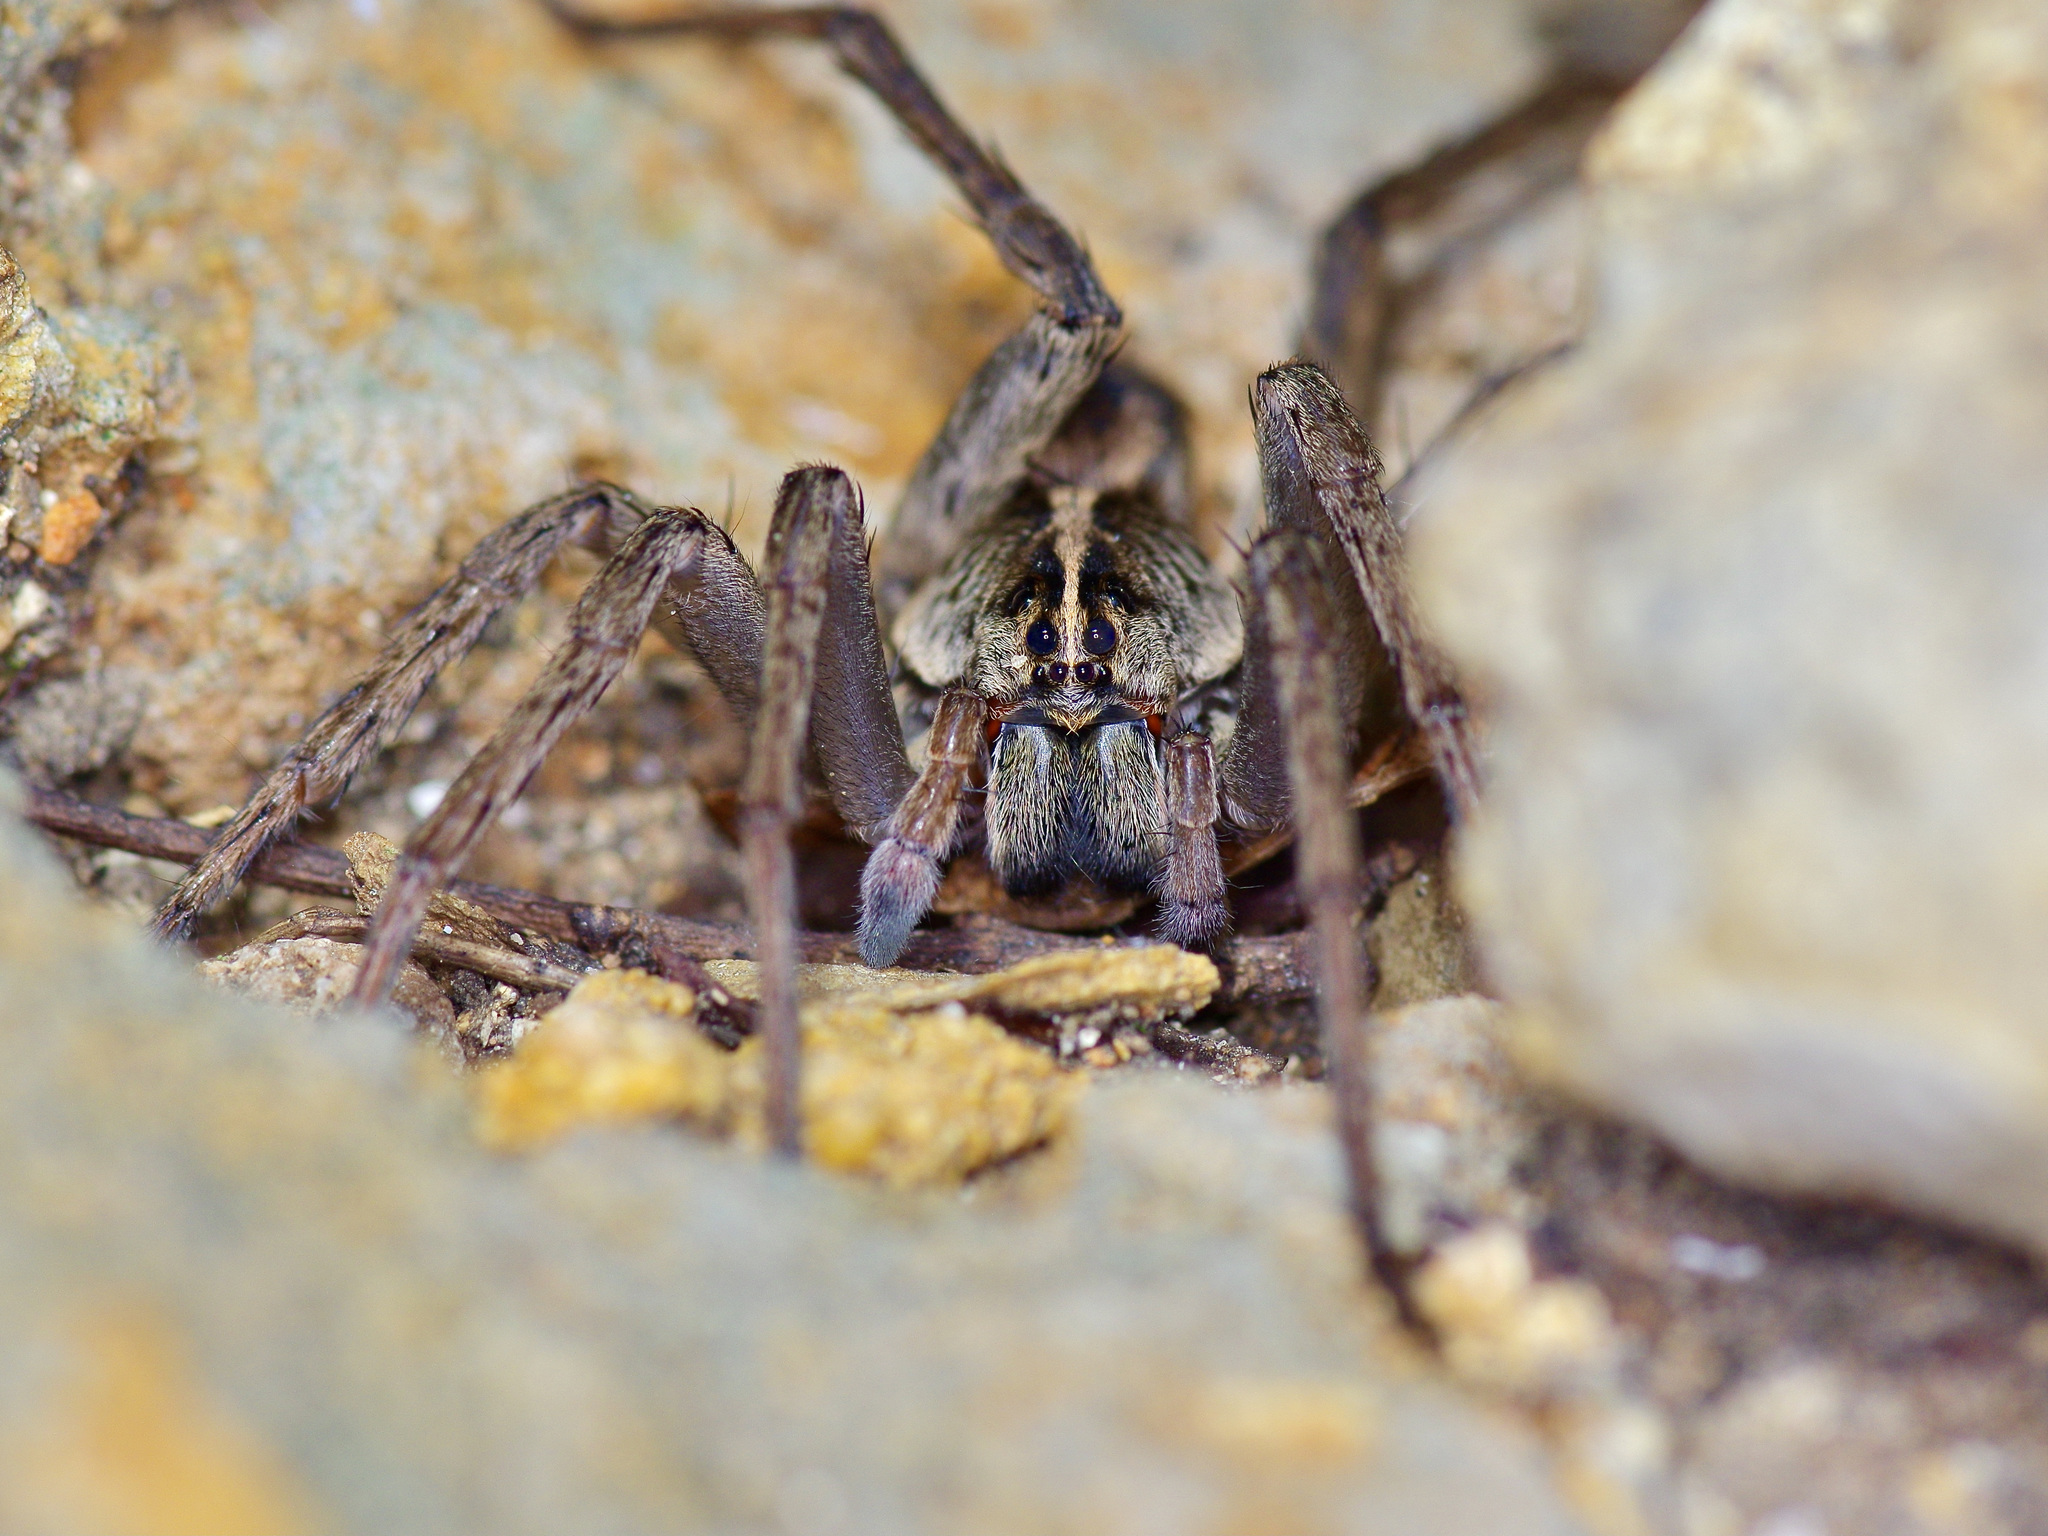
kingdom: Animalia
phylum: Arthropoda
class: Arachnida
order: Araneae
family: Lycosidae
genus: Tigrosa
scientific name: Tigrosa georgicola
